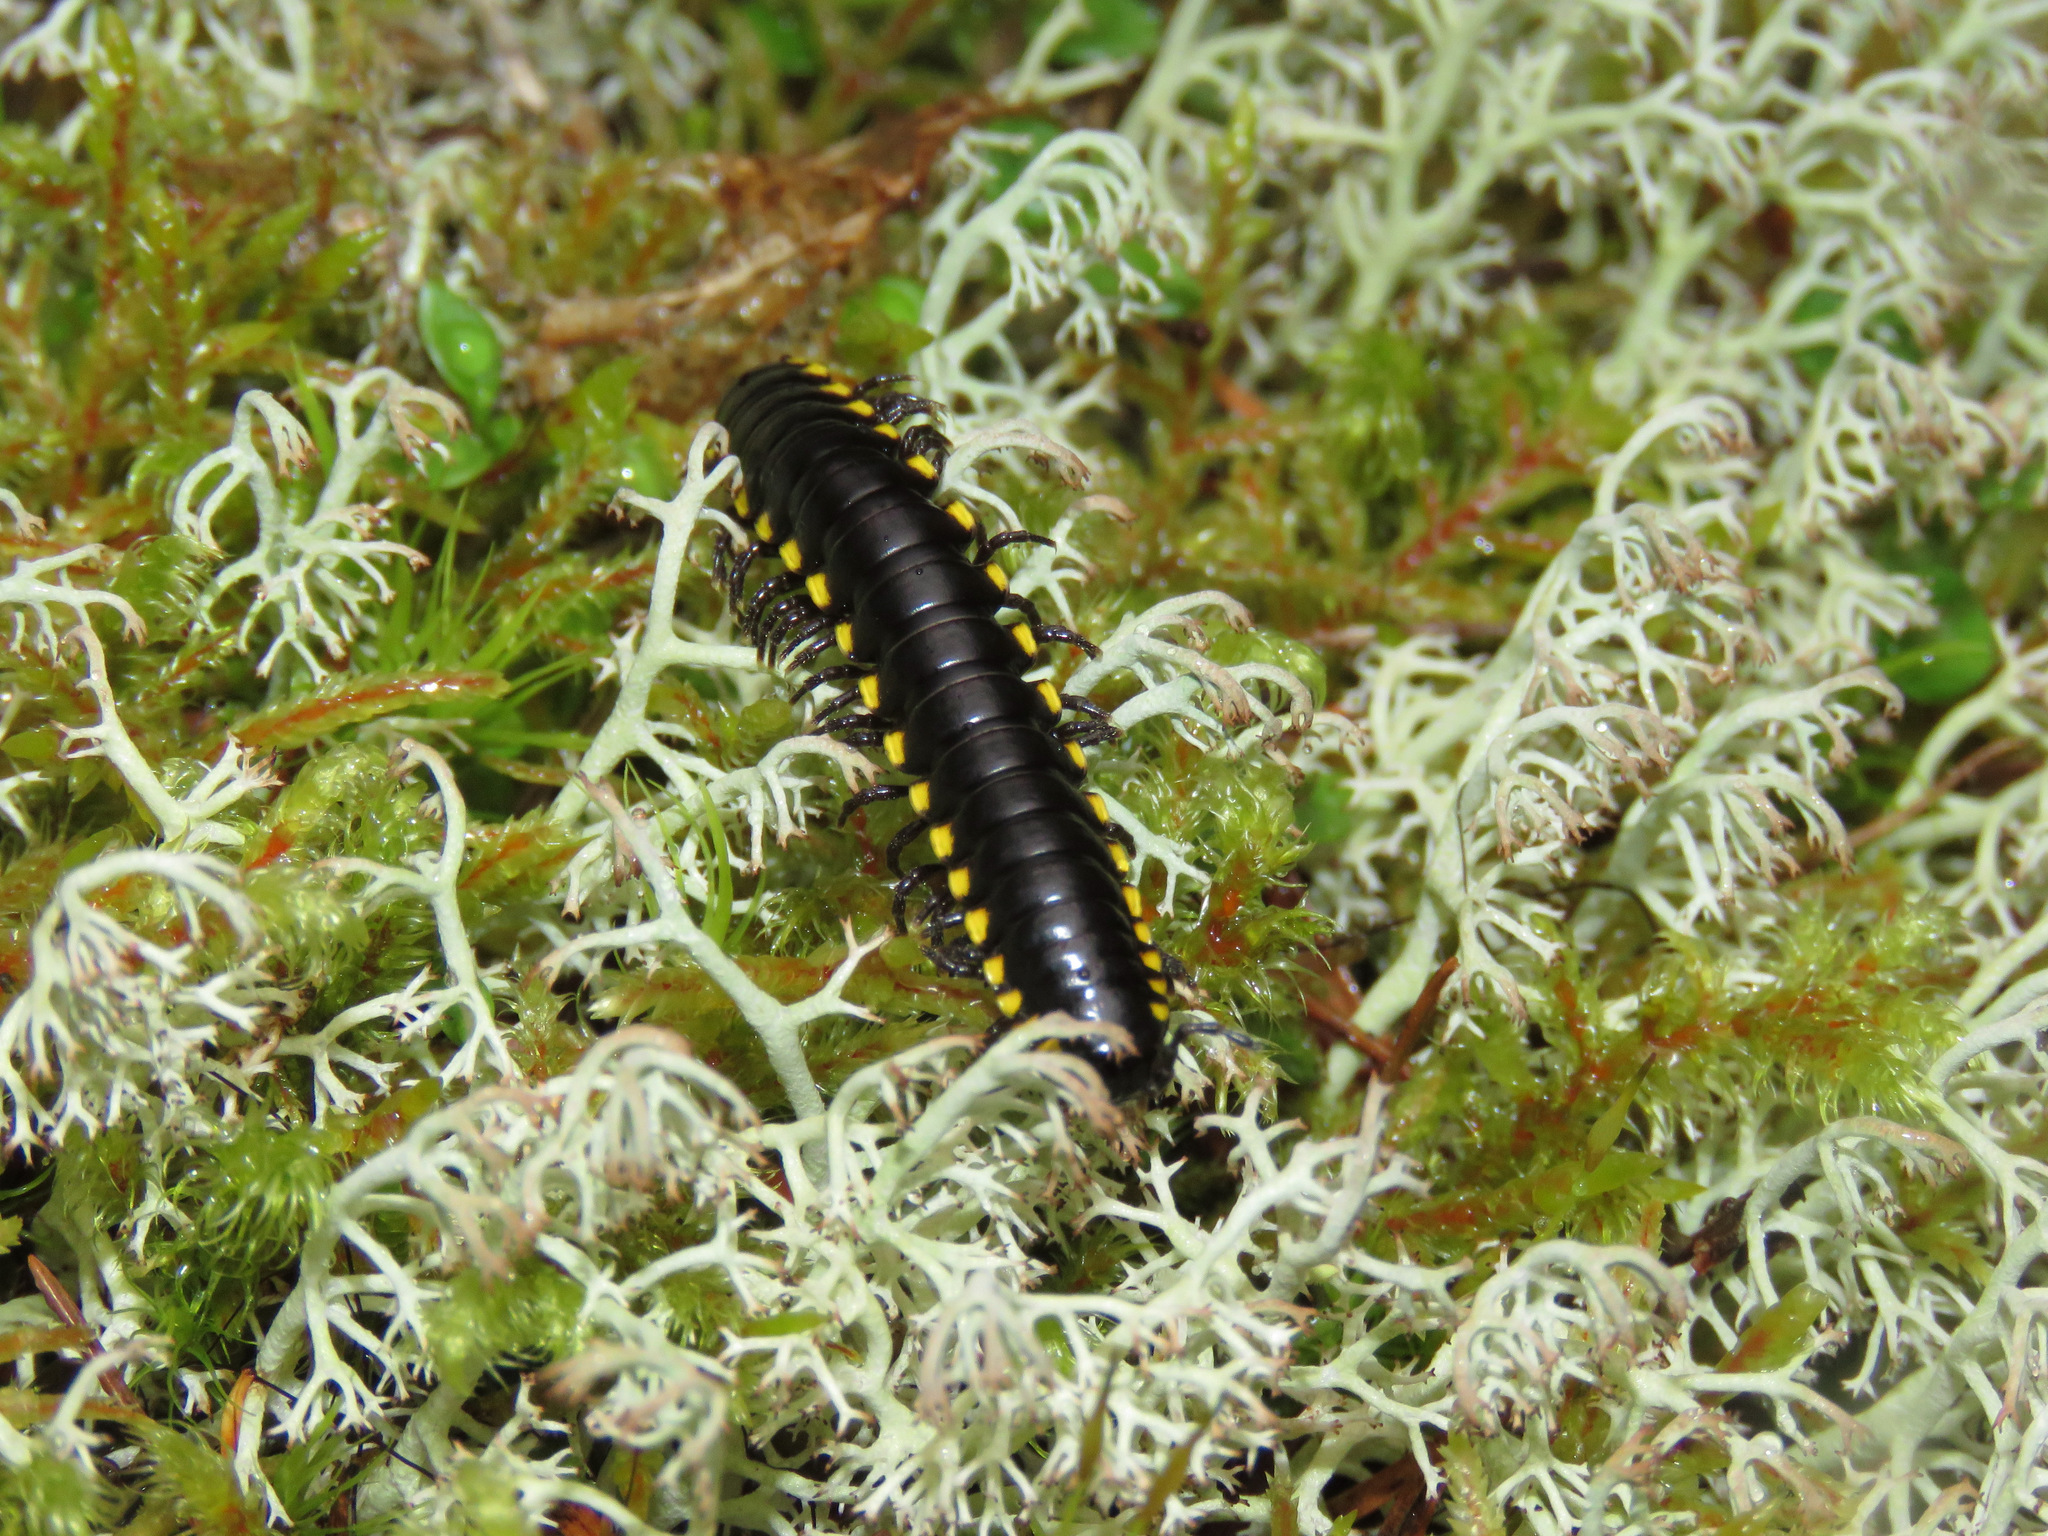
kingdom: Animalia
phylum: Arthropoda
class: Diplopoda
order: Polydesmida
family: Xystodesmidae
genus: Harpaphe
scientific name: Harpaphe haydeniana
